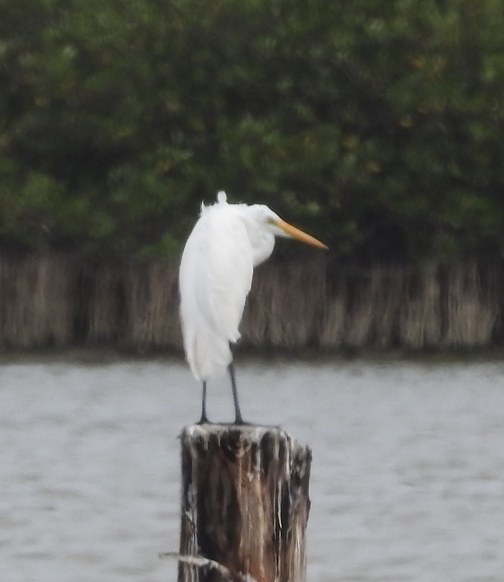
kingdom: Animalia
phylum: Chordata
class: Aves
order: Pelecaniformes
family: Ardeidae
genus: Ardea
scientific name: Ardea alba
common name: Great egret
